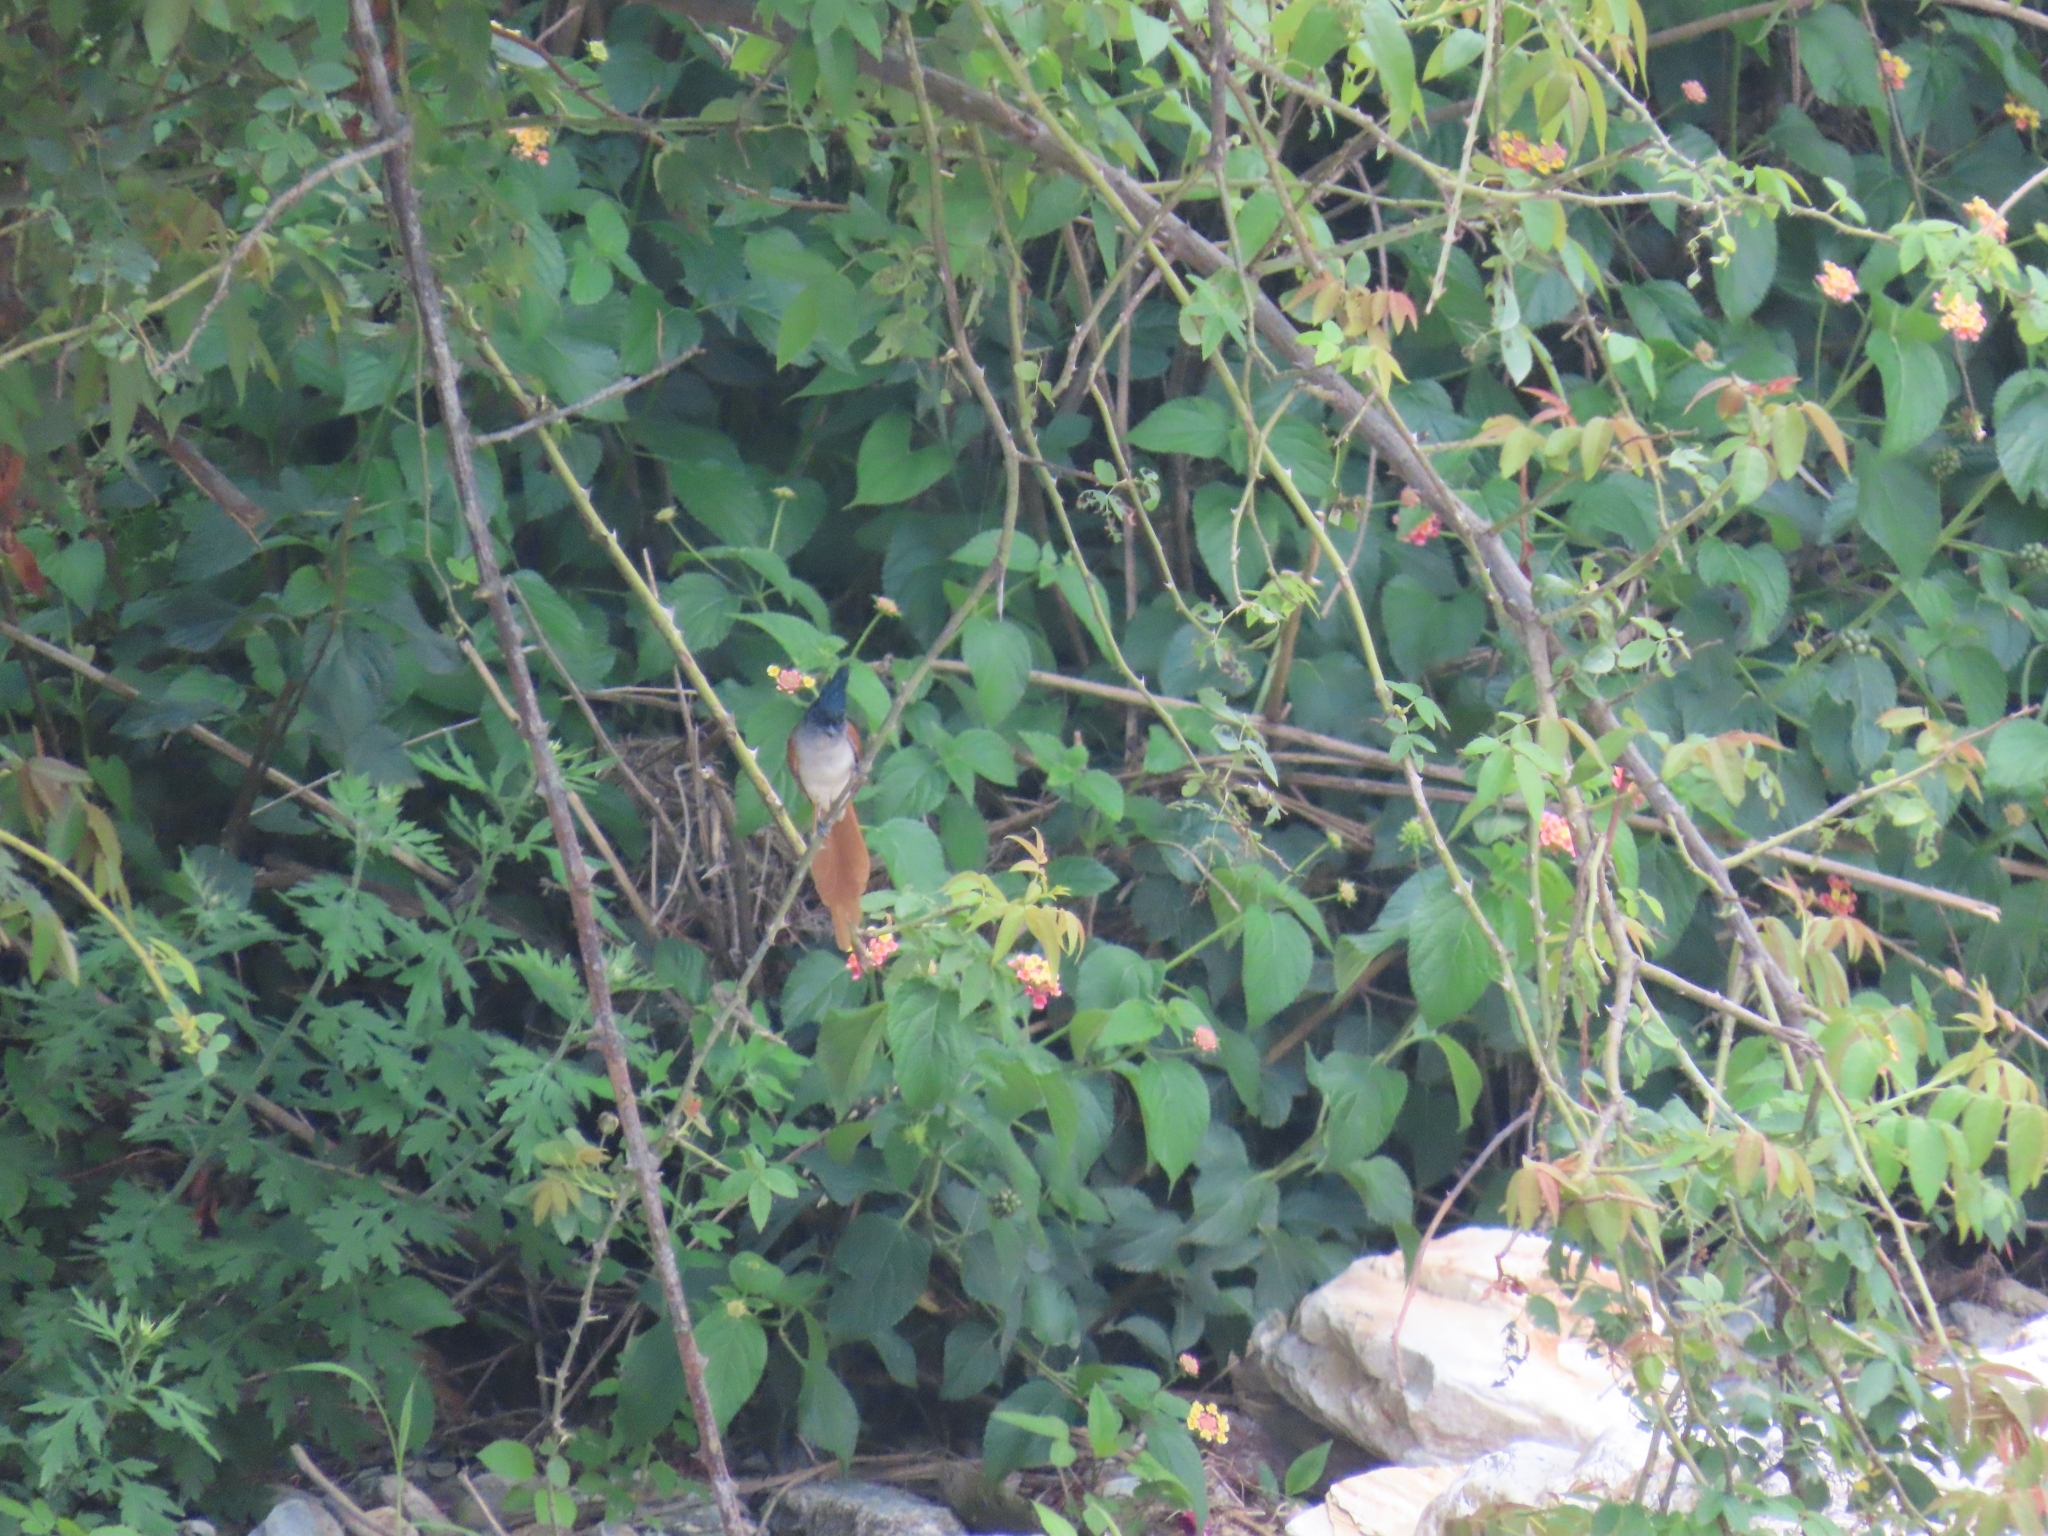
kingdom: Animalia
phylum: Chordata
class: Aves
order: Passeriformes
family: Monarchidae
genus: Terpsiphone
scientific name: Terpsiphone paradisi
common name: Indian paradise flycatcher
